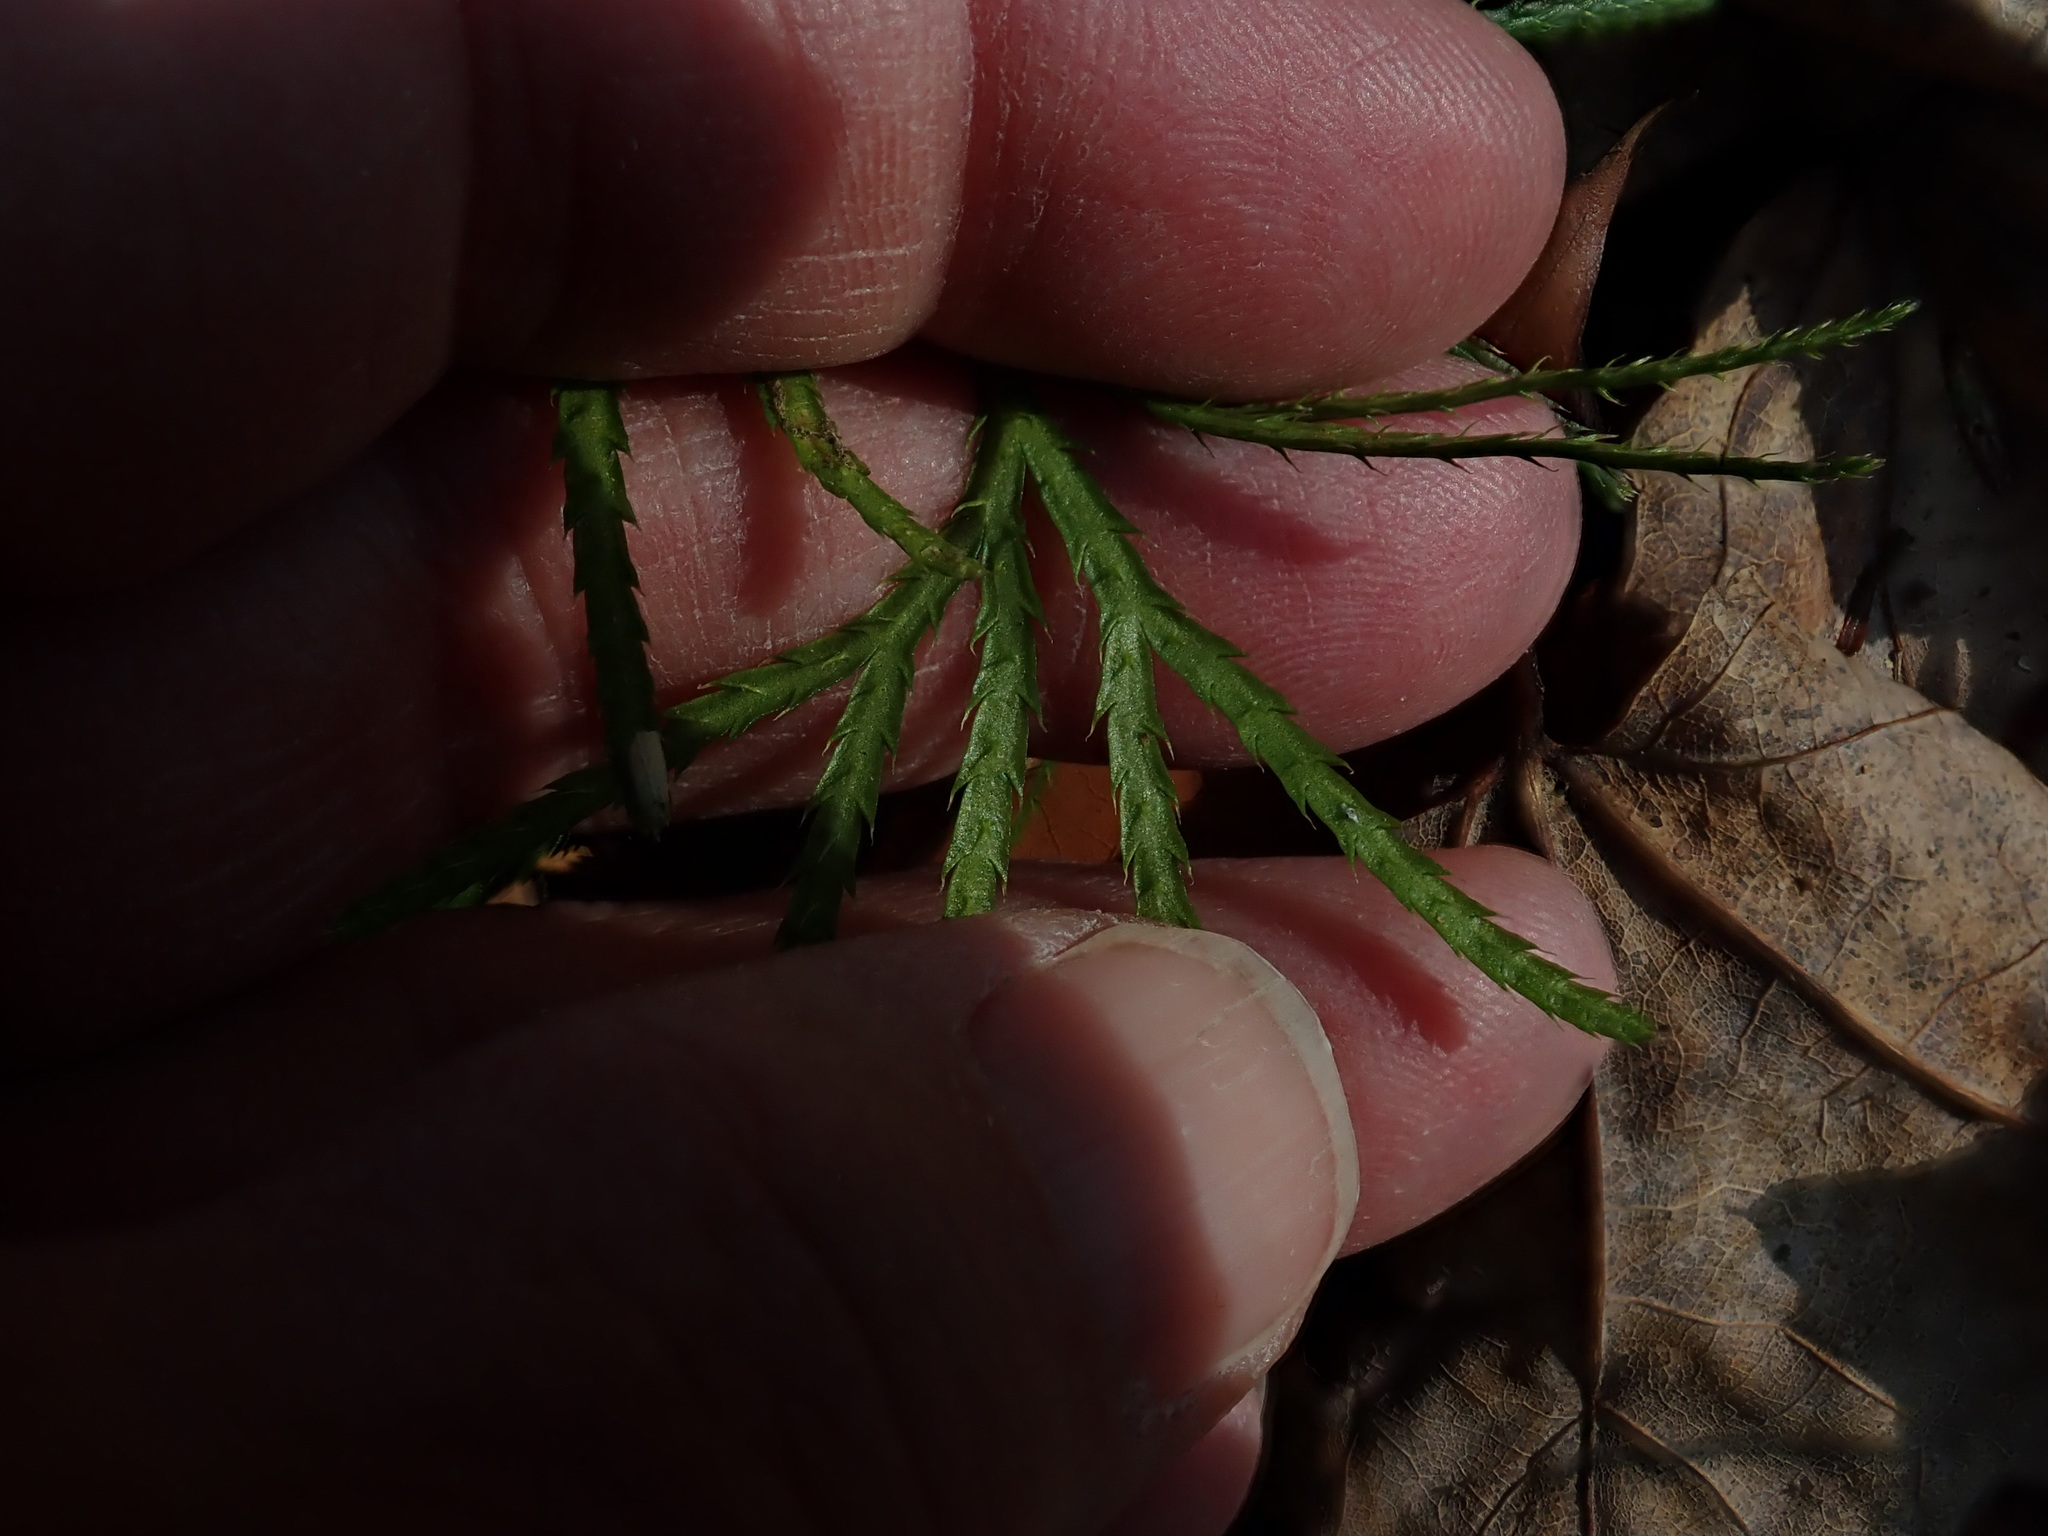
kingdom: Plantae
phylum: Tracheophyta
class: Lycopodiopsida
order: Lycopodiales
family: Lycopodiaceae
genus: Diphasiastrum
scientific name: Diphasiastrum digitatum
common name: Southern running-pine
